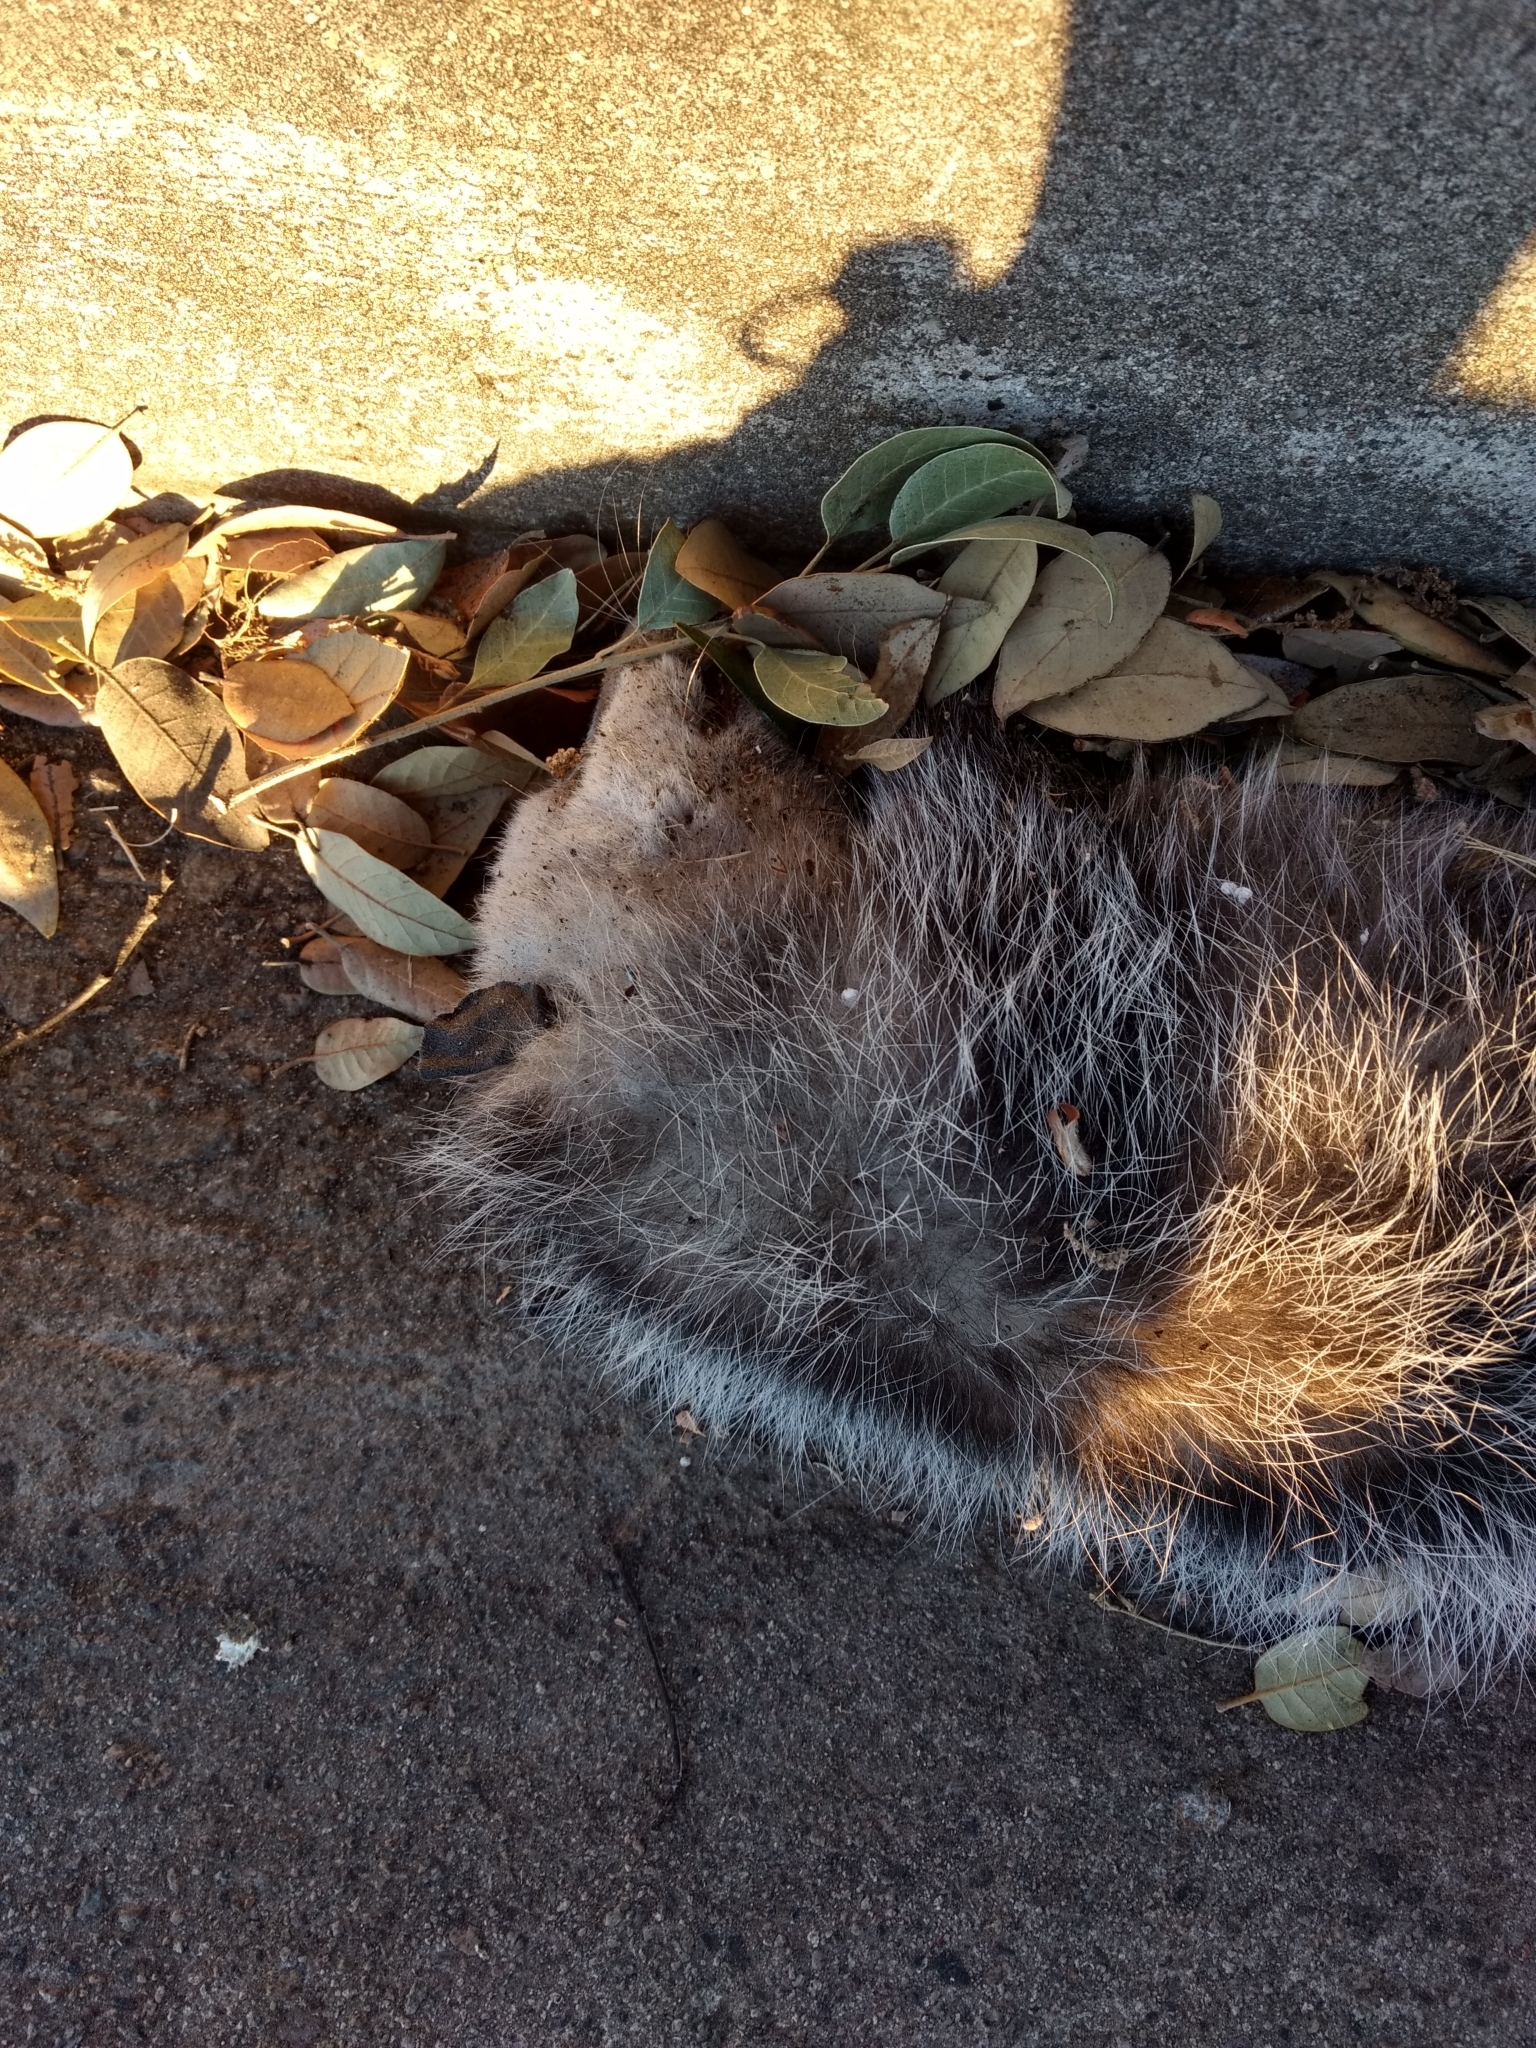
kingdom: Animalia
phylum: Chordata
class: Mammalia
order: Didelphimorphia
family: Didelphidae
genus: Didelphis
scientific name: Didelphis virginiana
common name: Virginia opossum
